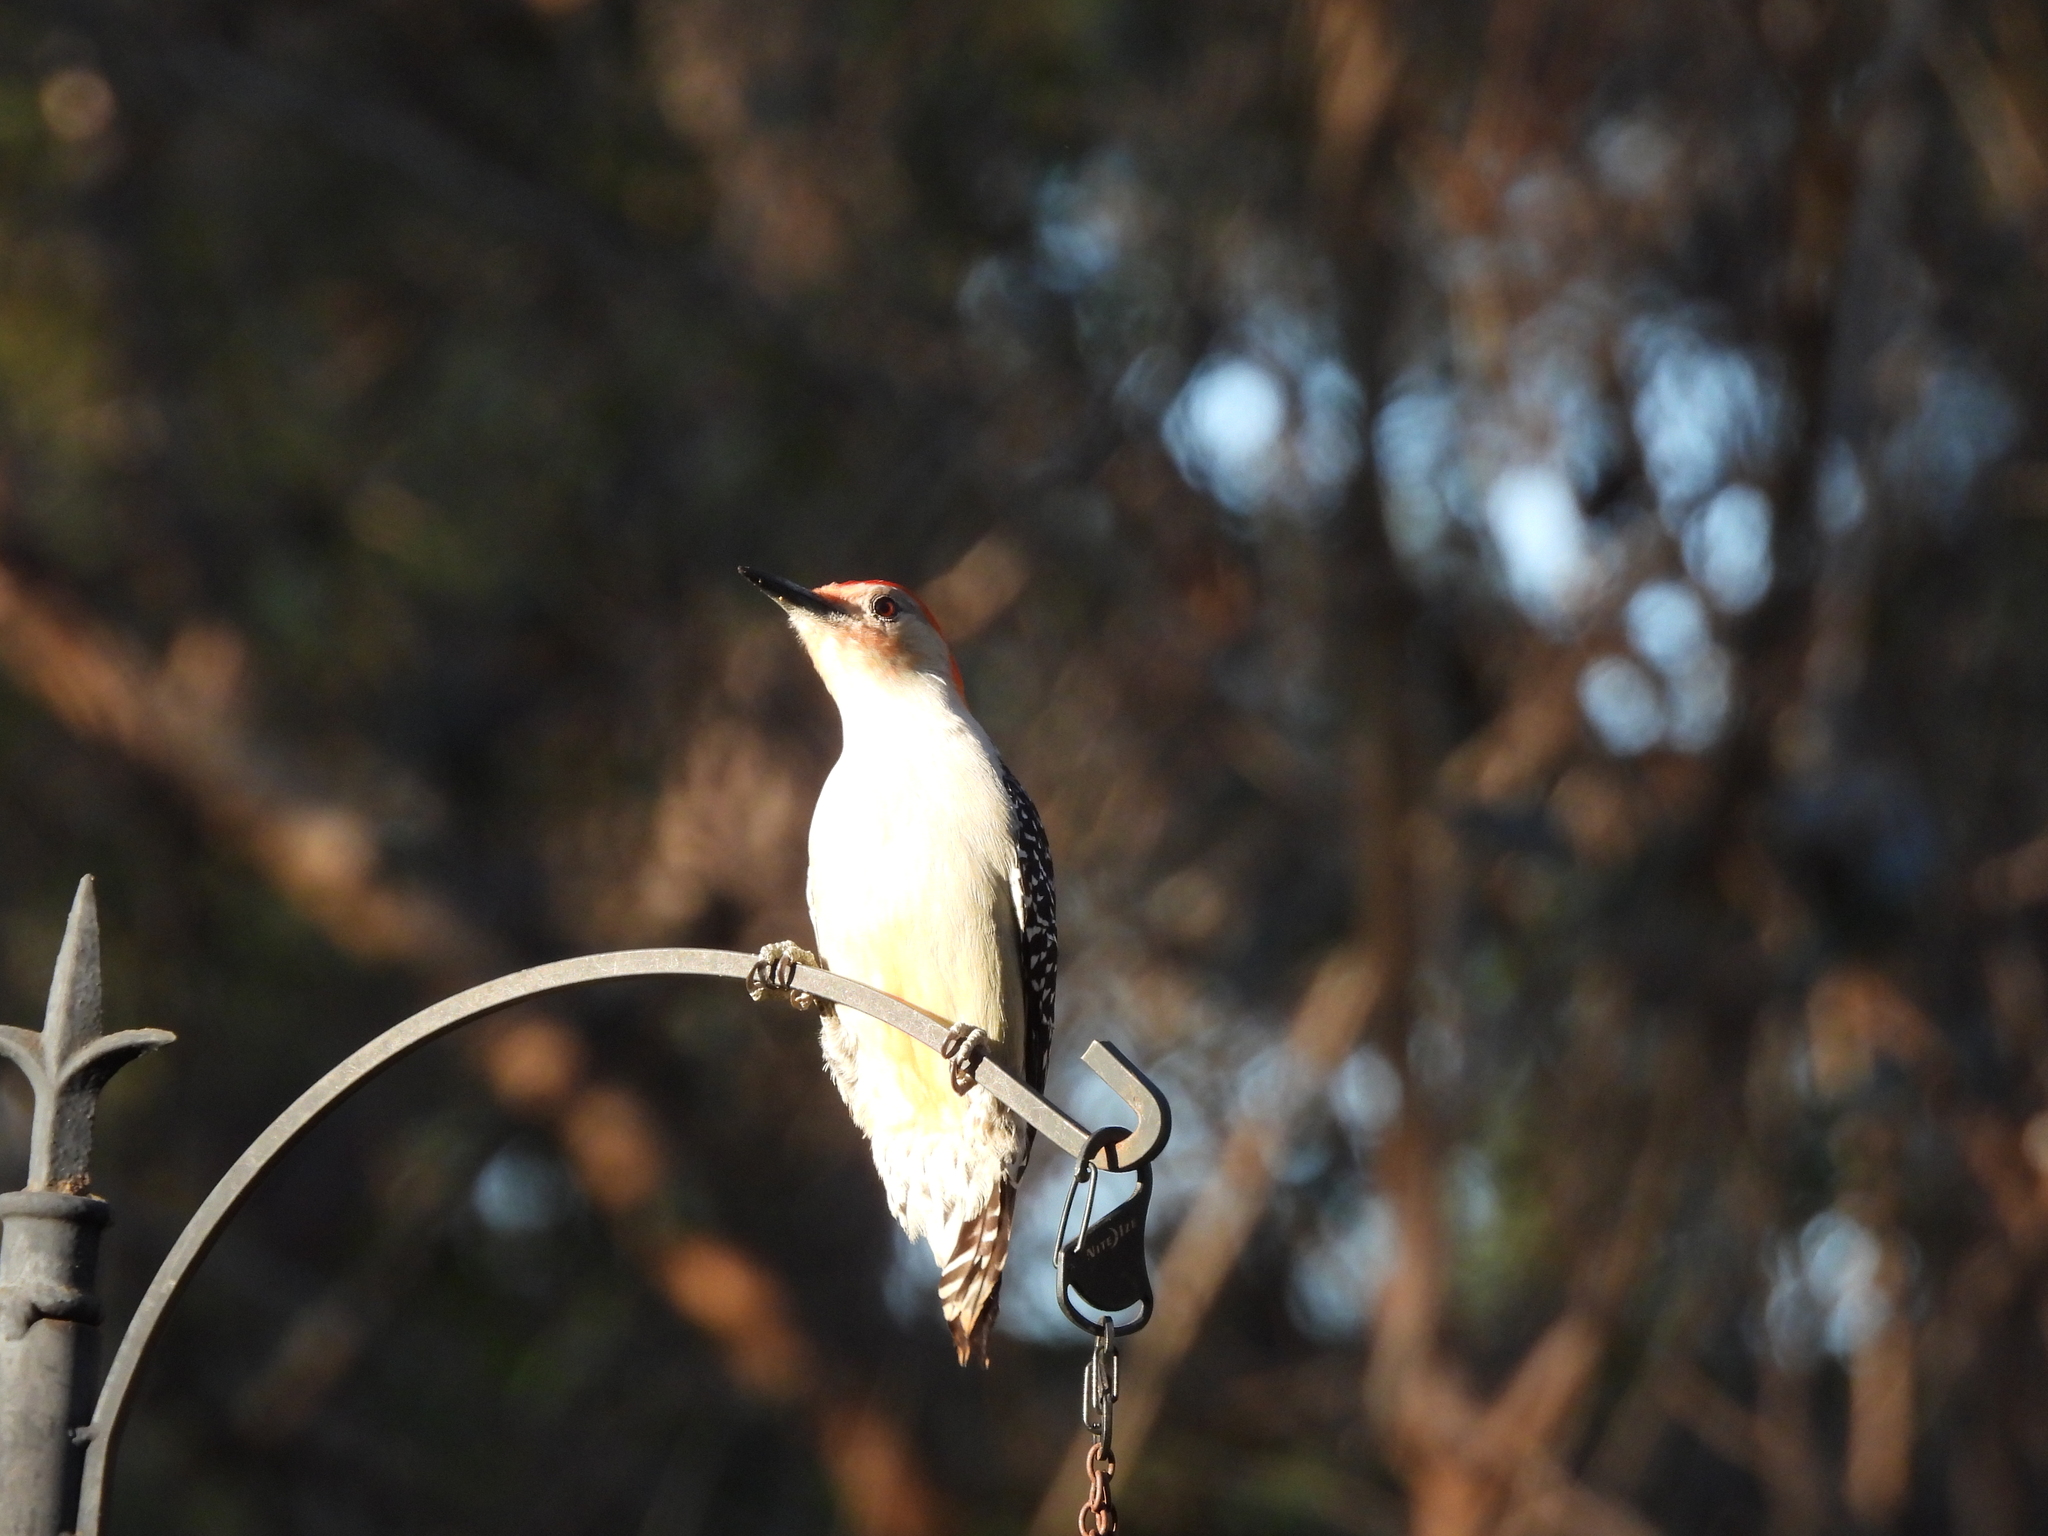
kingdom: Animalia
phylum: Chordata
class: Aves
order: Piciformes
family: Picidae
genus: Melanerpes
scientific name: Melanerpes carolinus
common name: Red-bellied woodpecker
